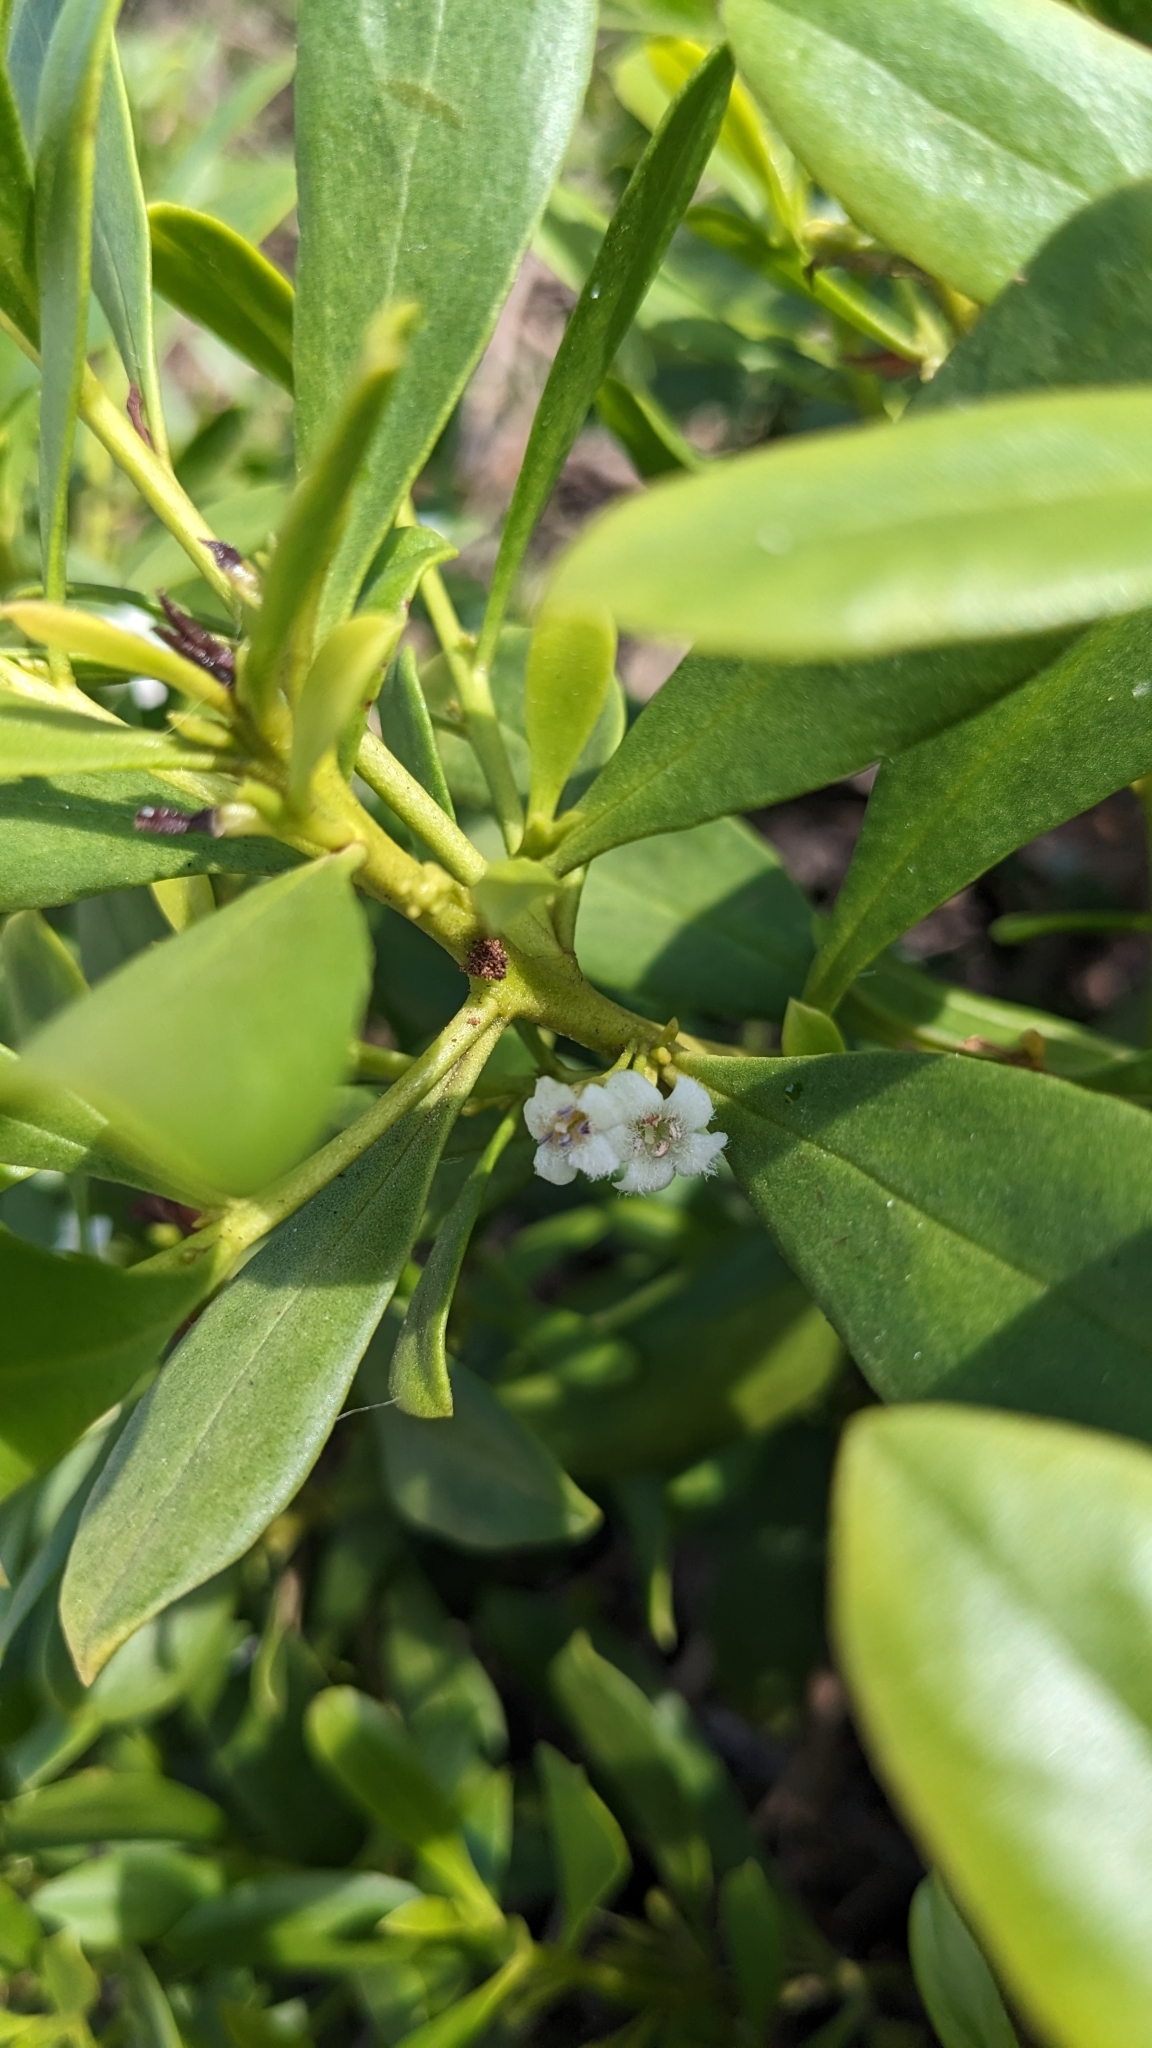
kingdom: Plantae
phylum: Tracheophyta
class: Magnoliopsida
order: Lamiales
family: Scrophulariaceae
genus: Myoporum
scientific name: Myoporum boninense
